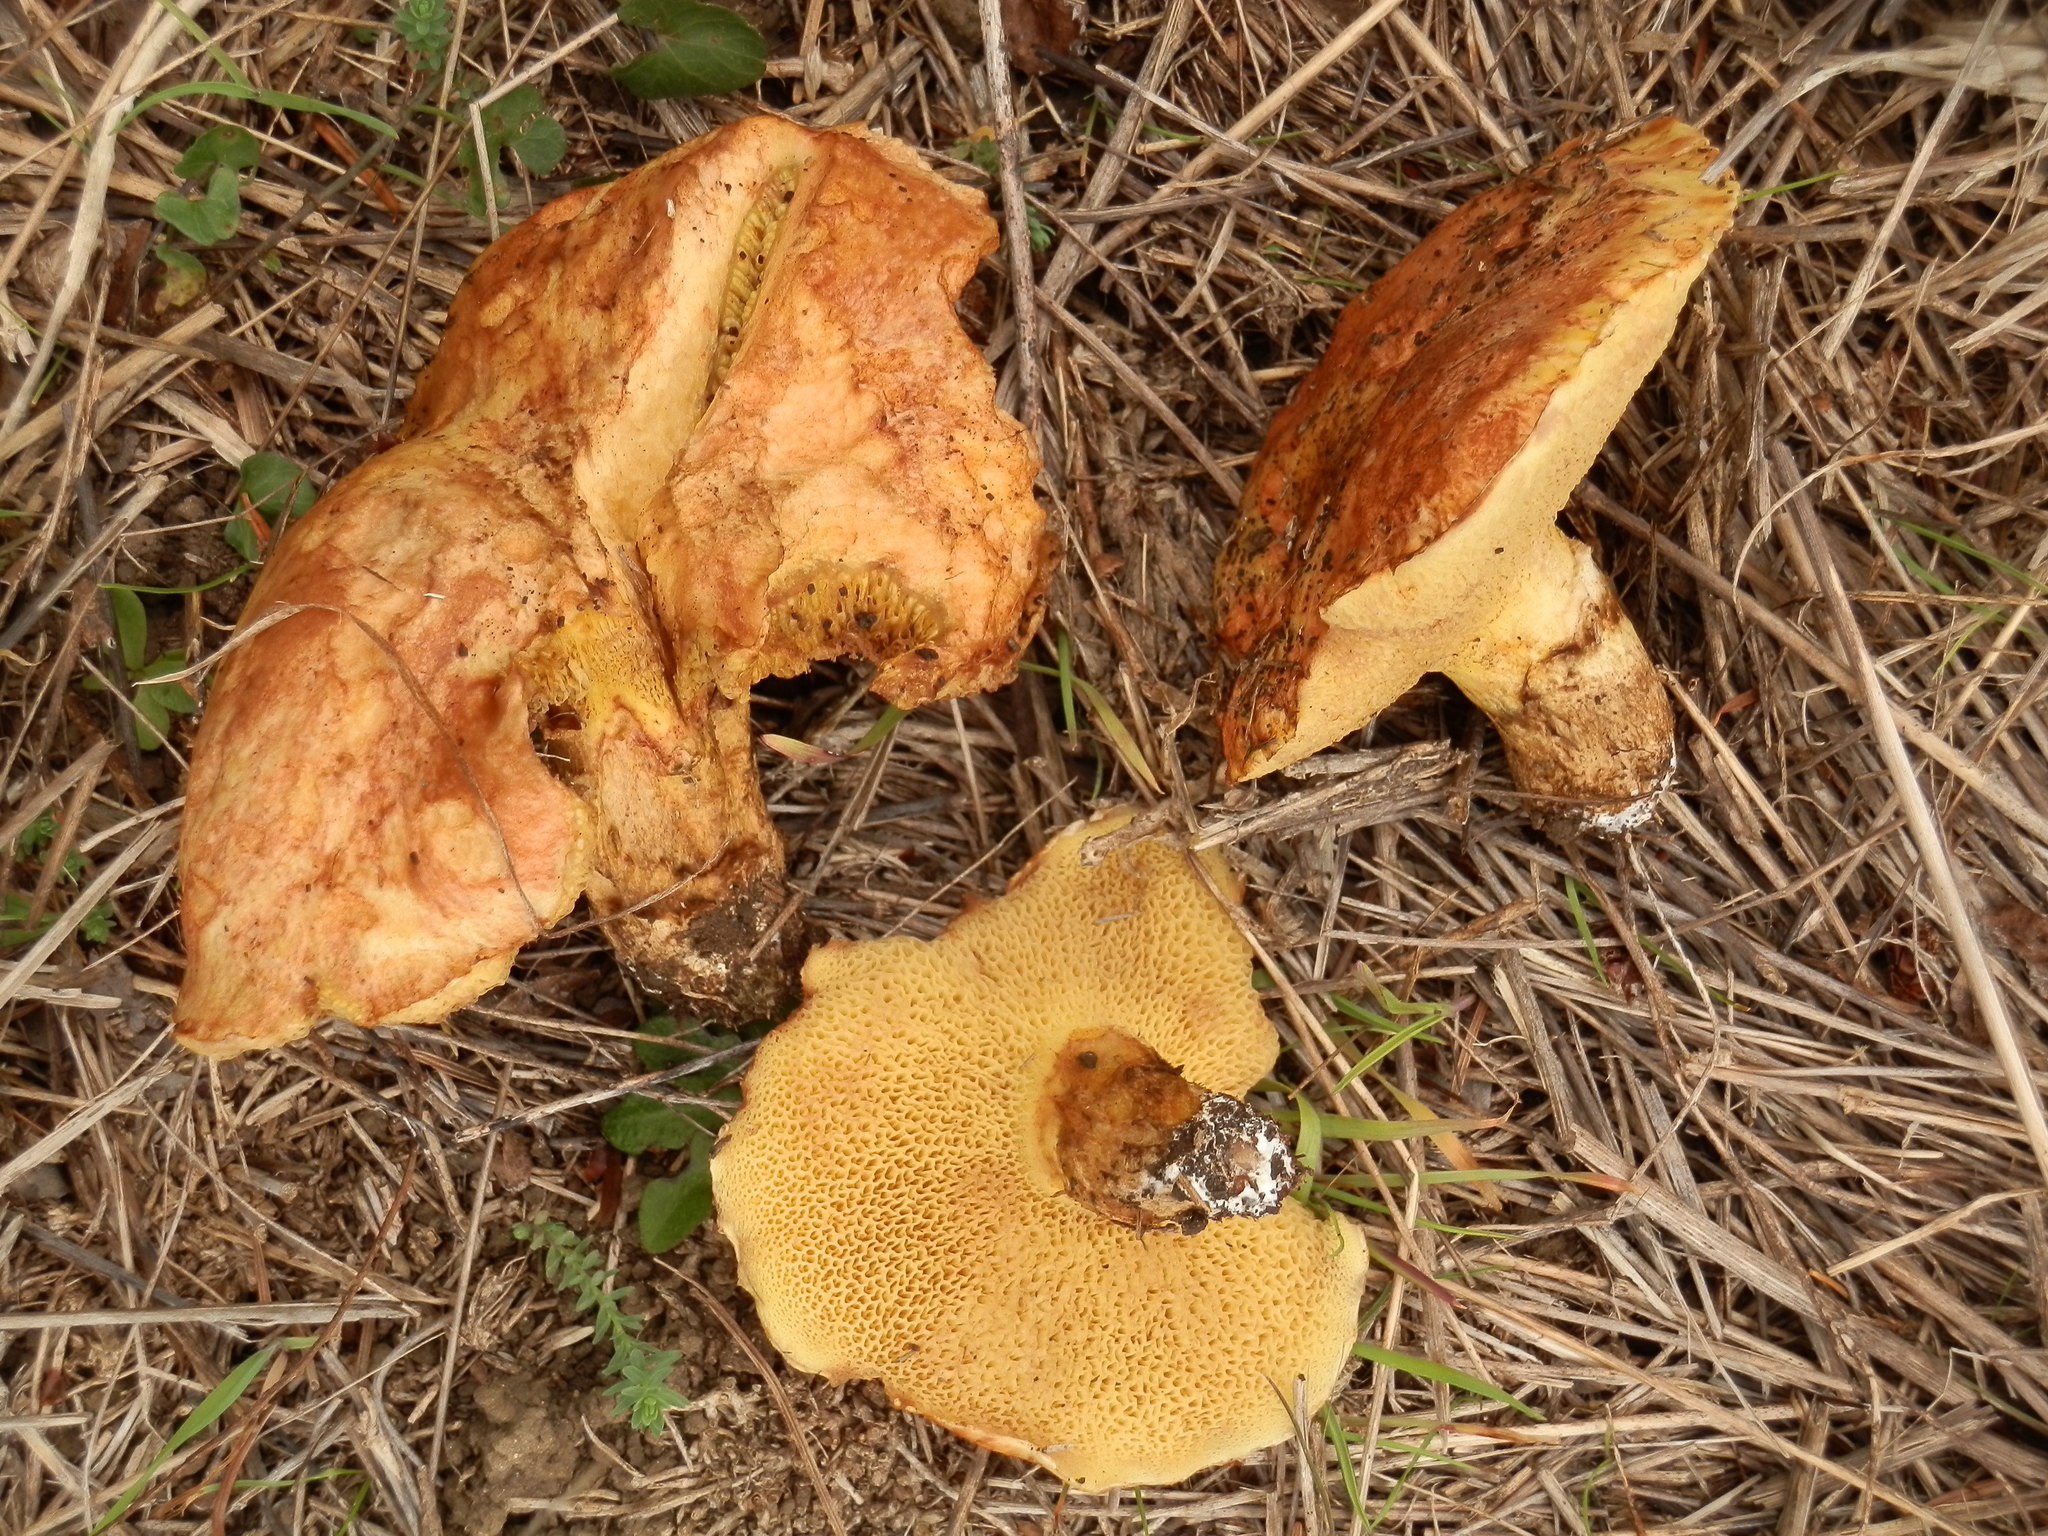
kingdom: Fungi
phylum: Basidiomycota
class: Agaricomycetes
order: Boletales
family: Suillaceae
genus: Suillus
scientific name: Suillus caerulescens
